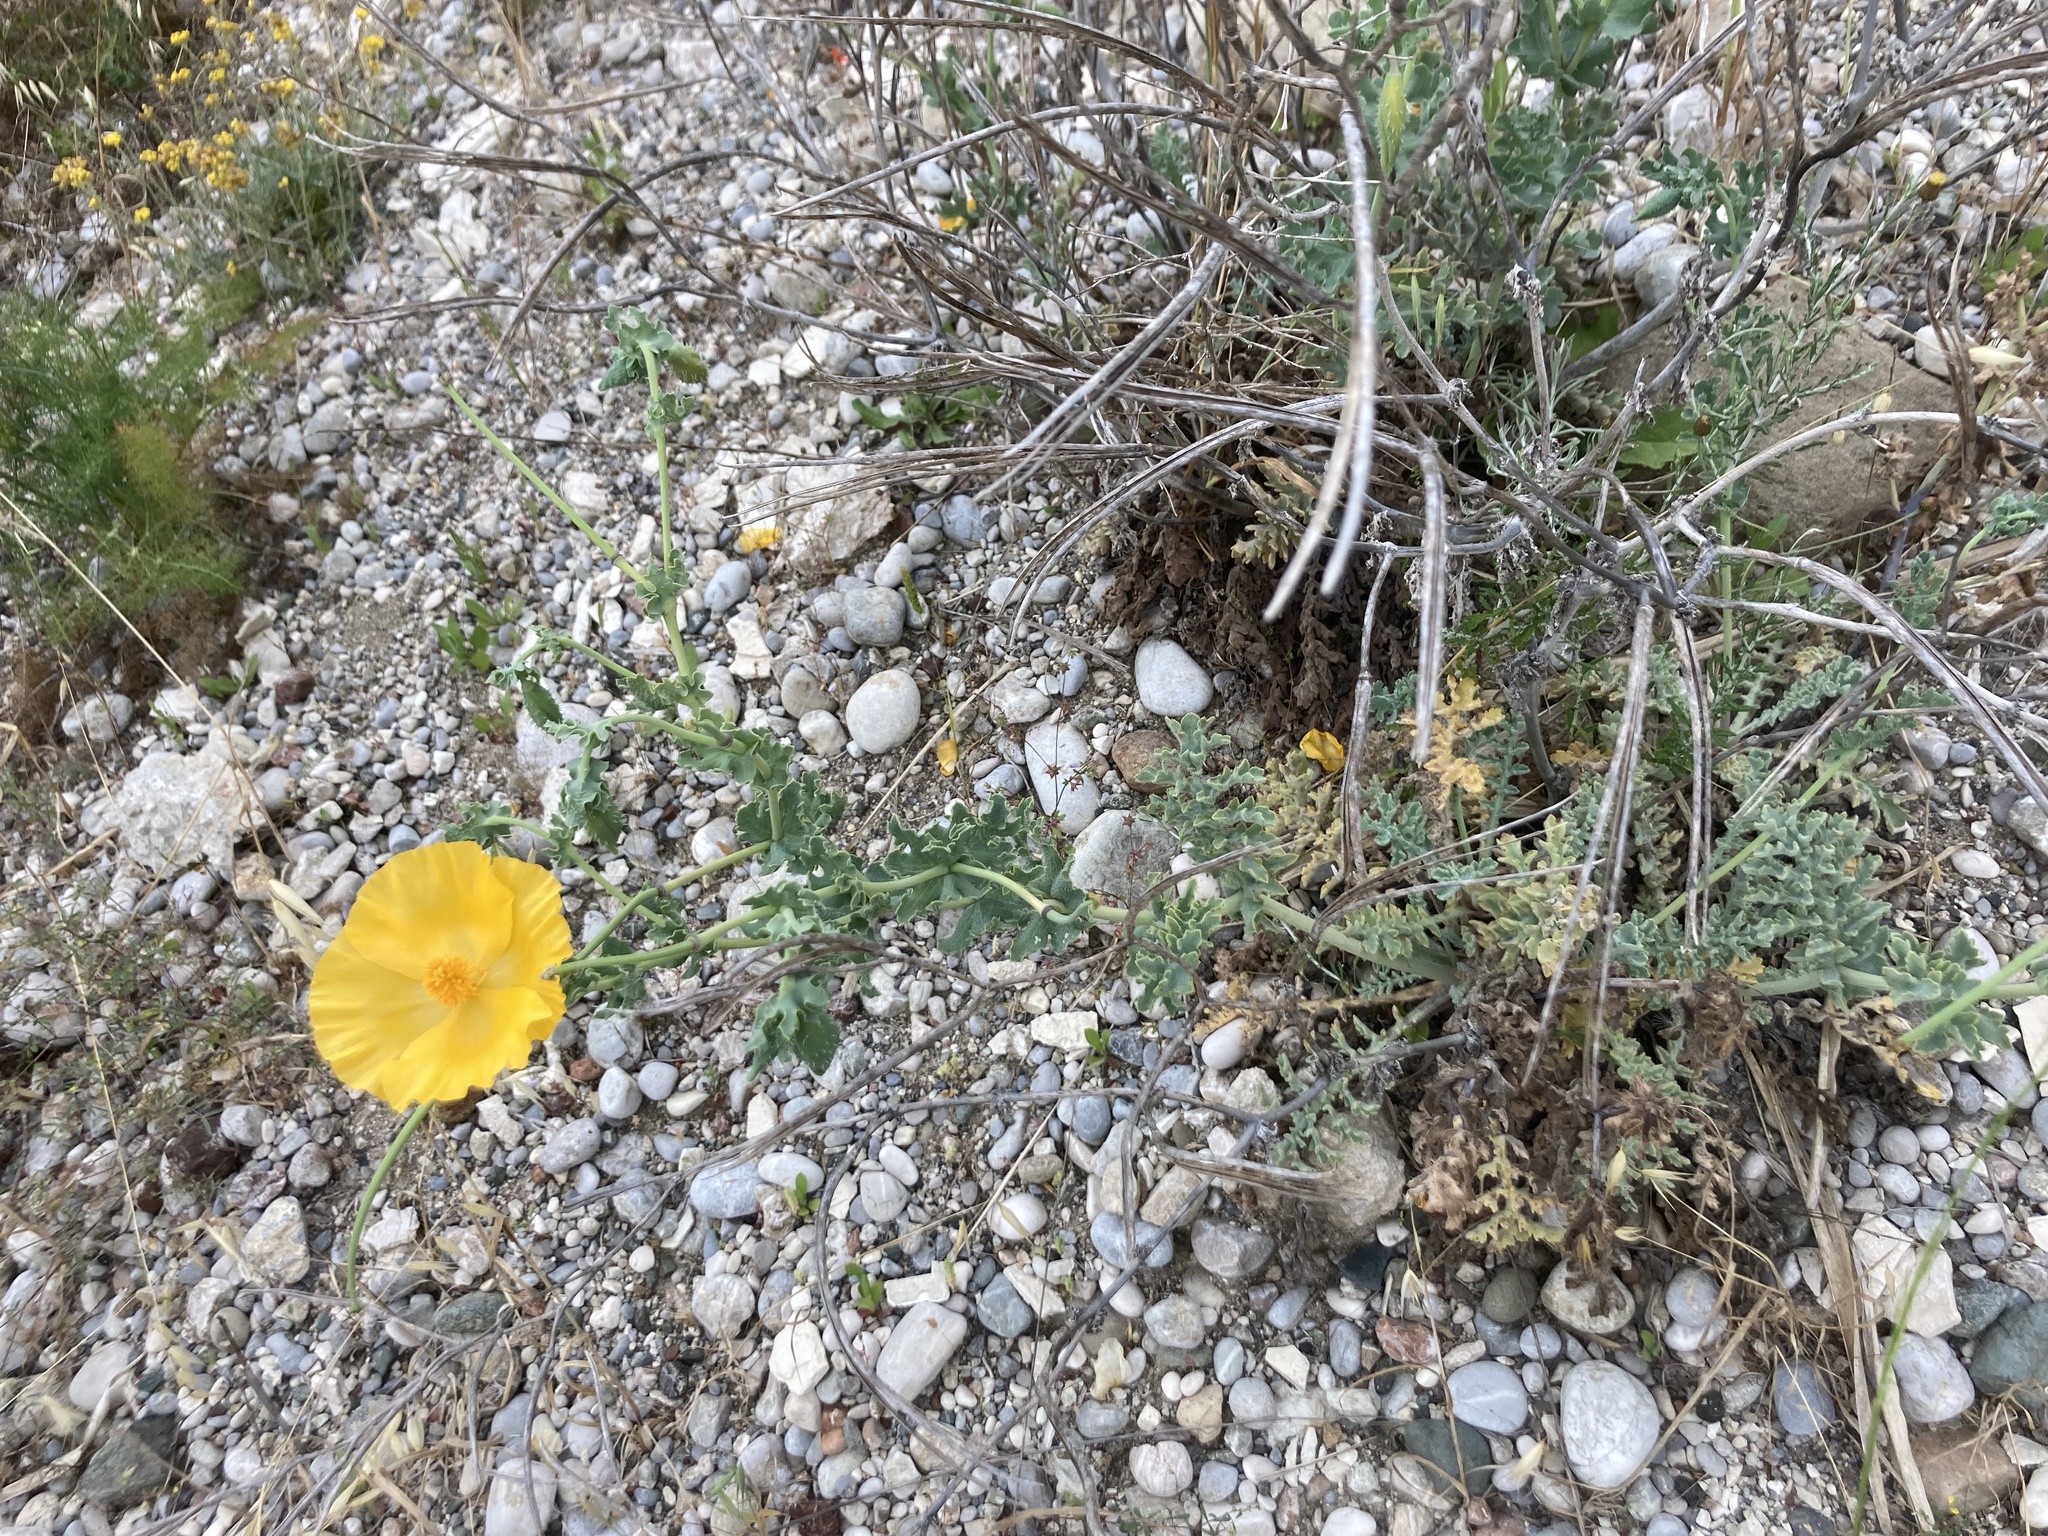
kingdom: Plantae
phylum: Tracheophyta
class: Magnoliopsida
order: Ranunculales
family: Papaveraceae
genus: Glaucium
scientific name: Glaucium flavum
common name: Yellow horned-poppy
